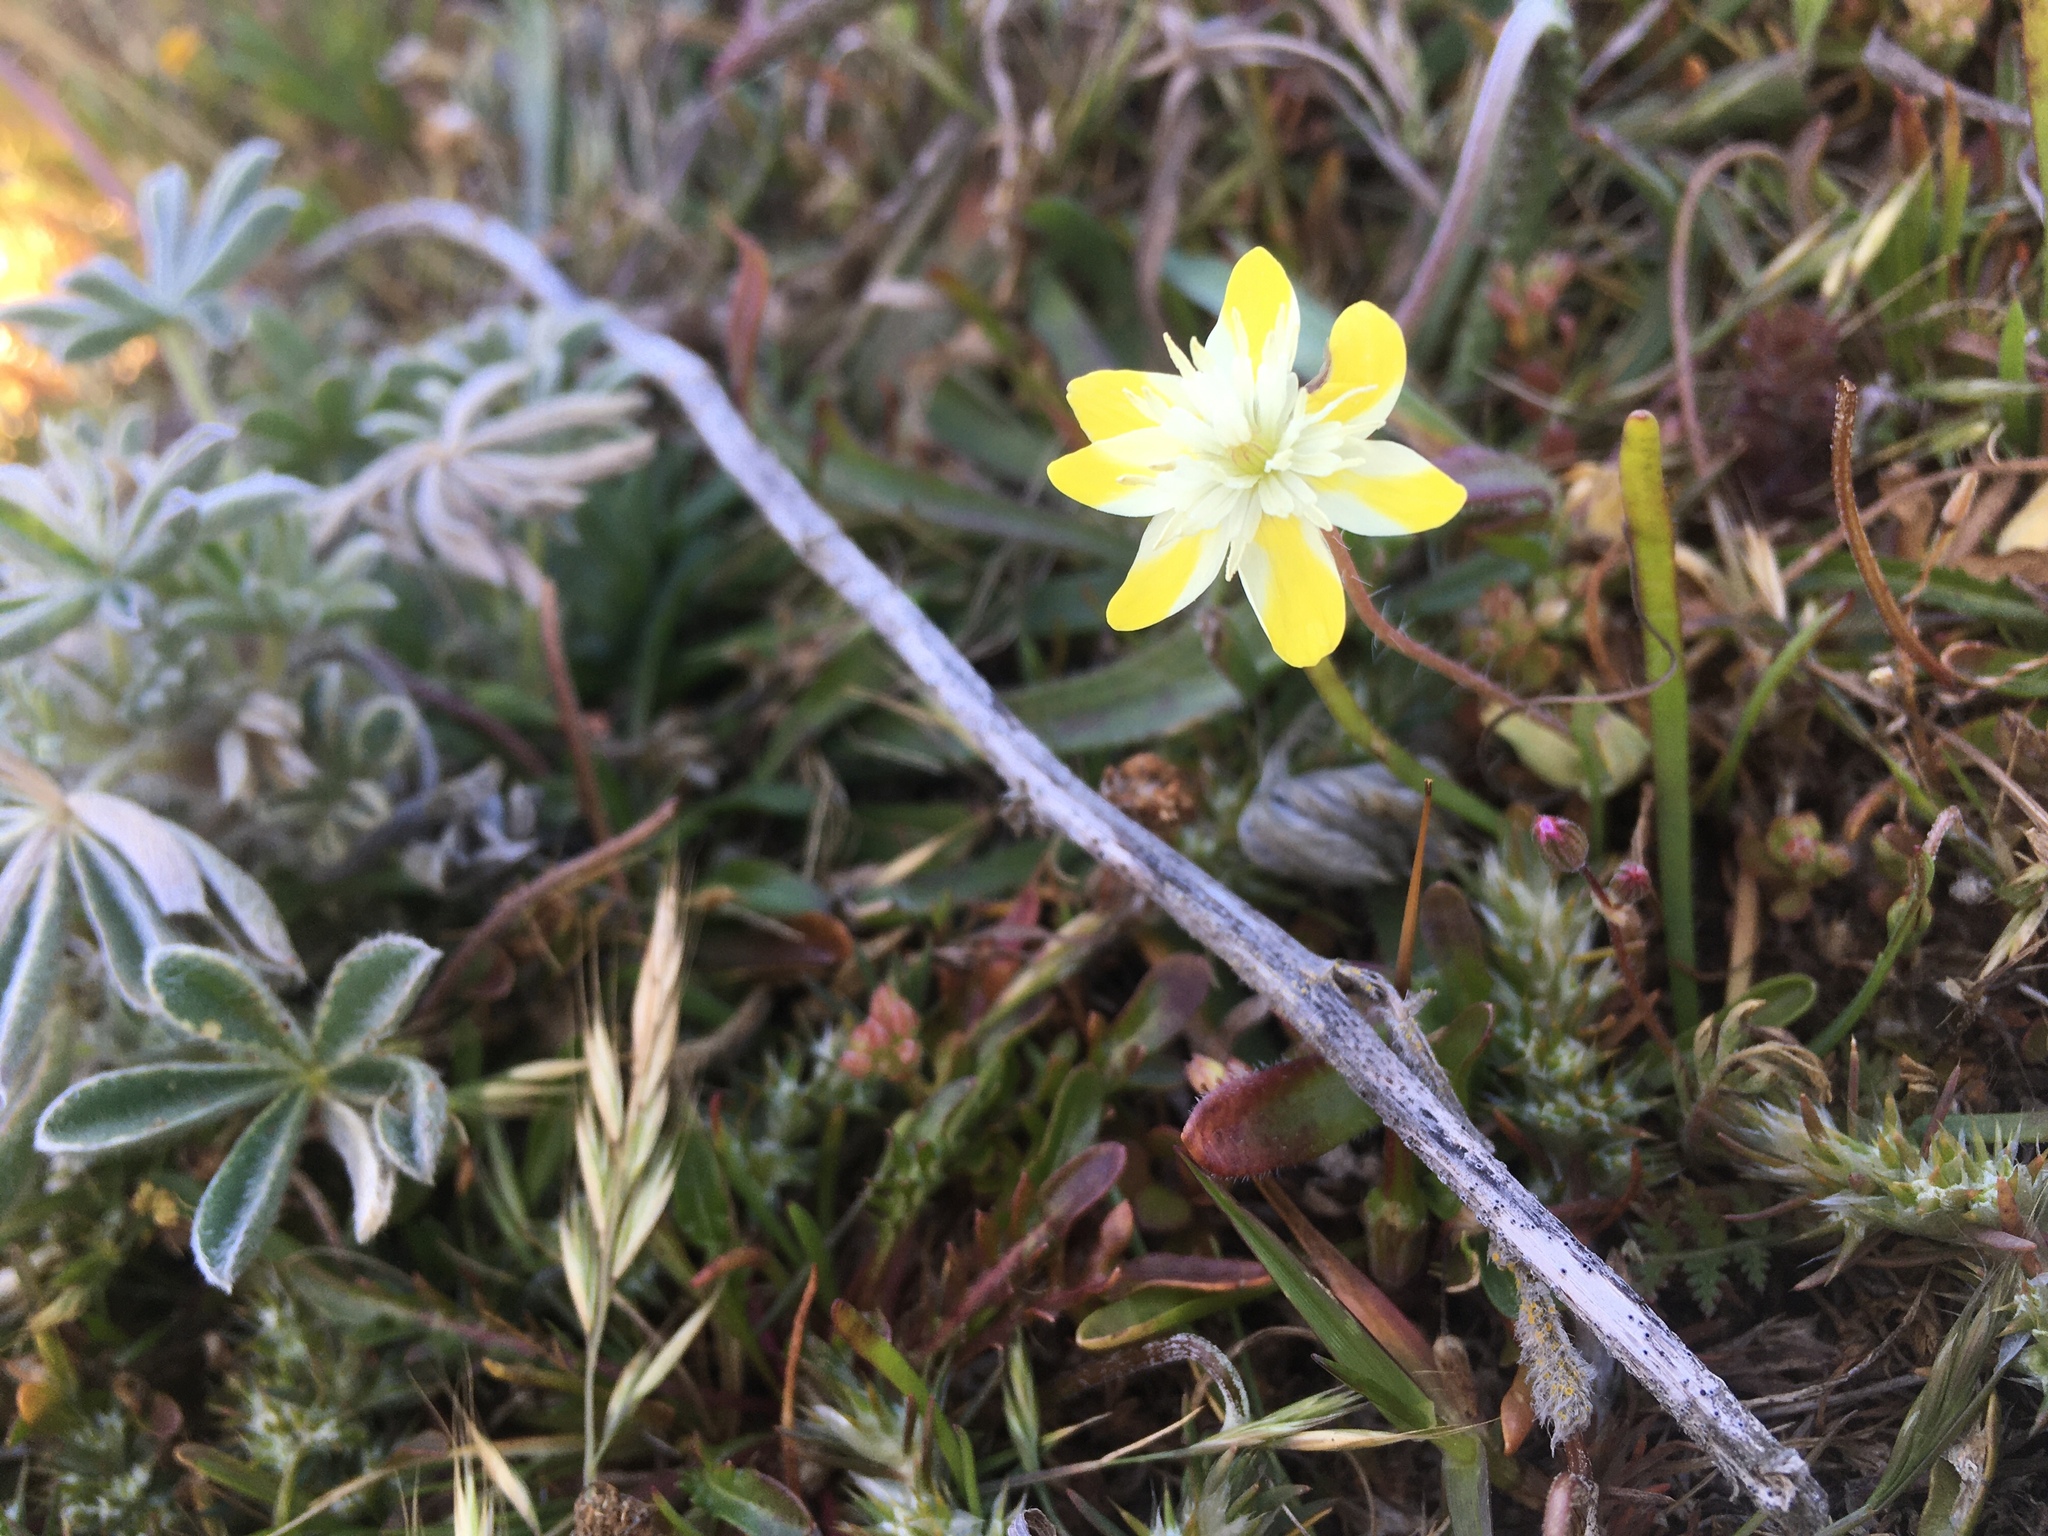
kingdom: Plantae
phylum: Tracheophyta
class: Magnoliopsida
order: Ranunculales
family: Papaveraceae
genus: Platystemon
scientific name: Platystemon californicus
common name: Cream-cups
